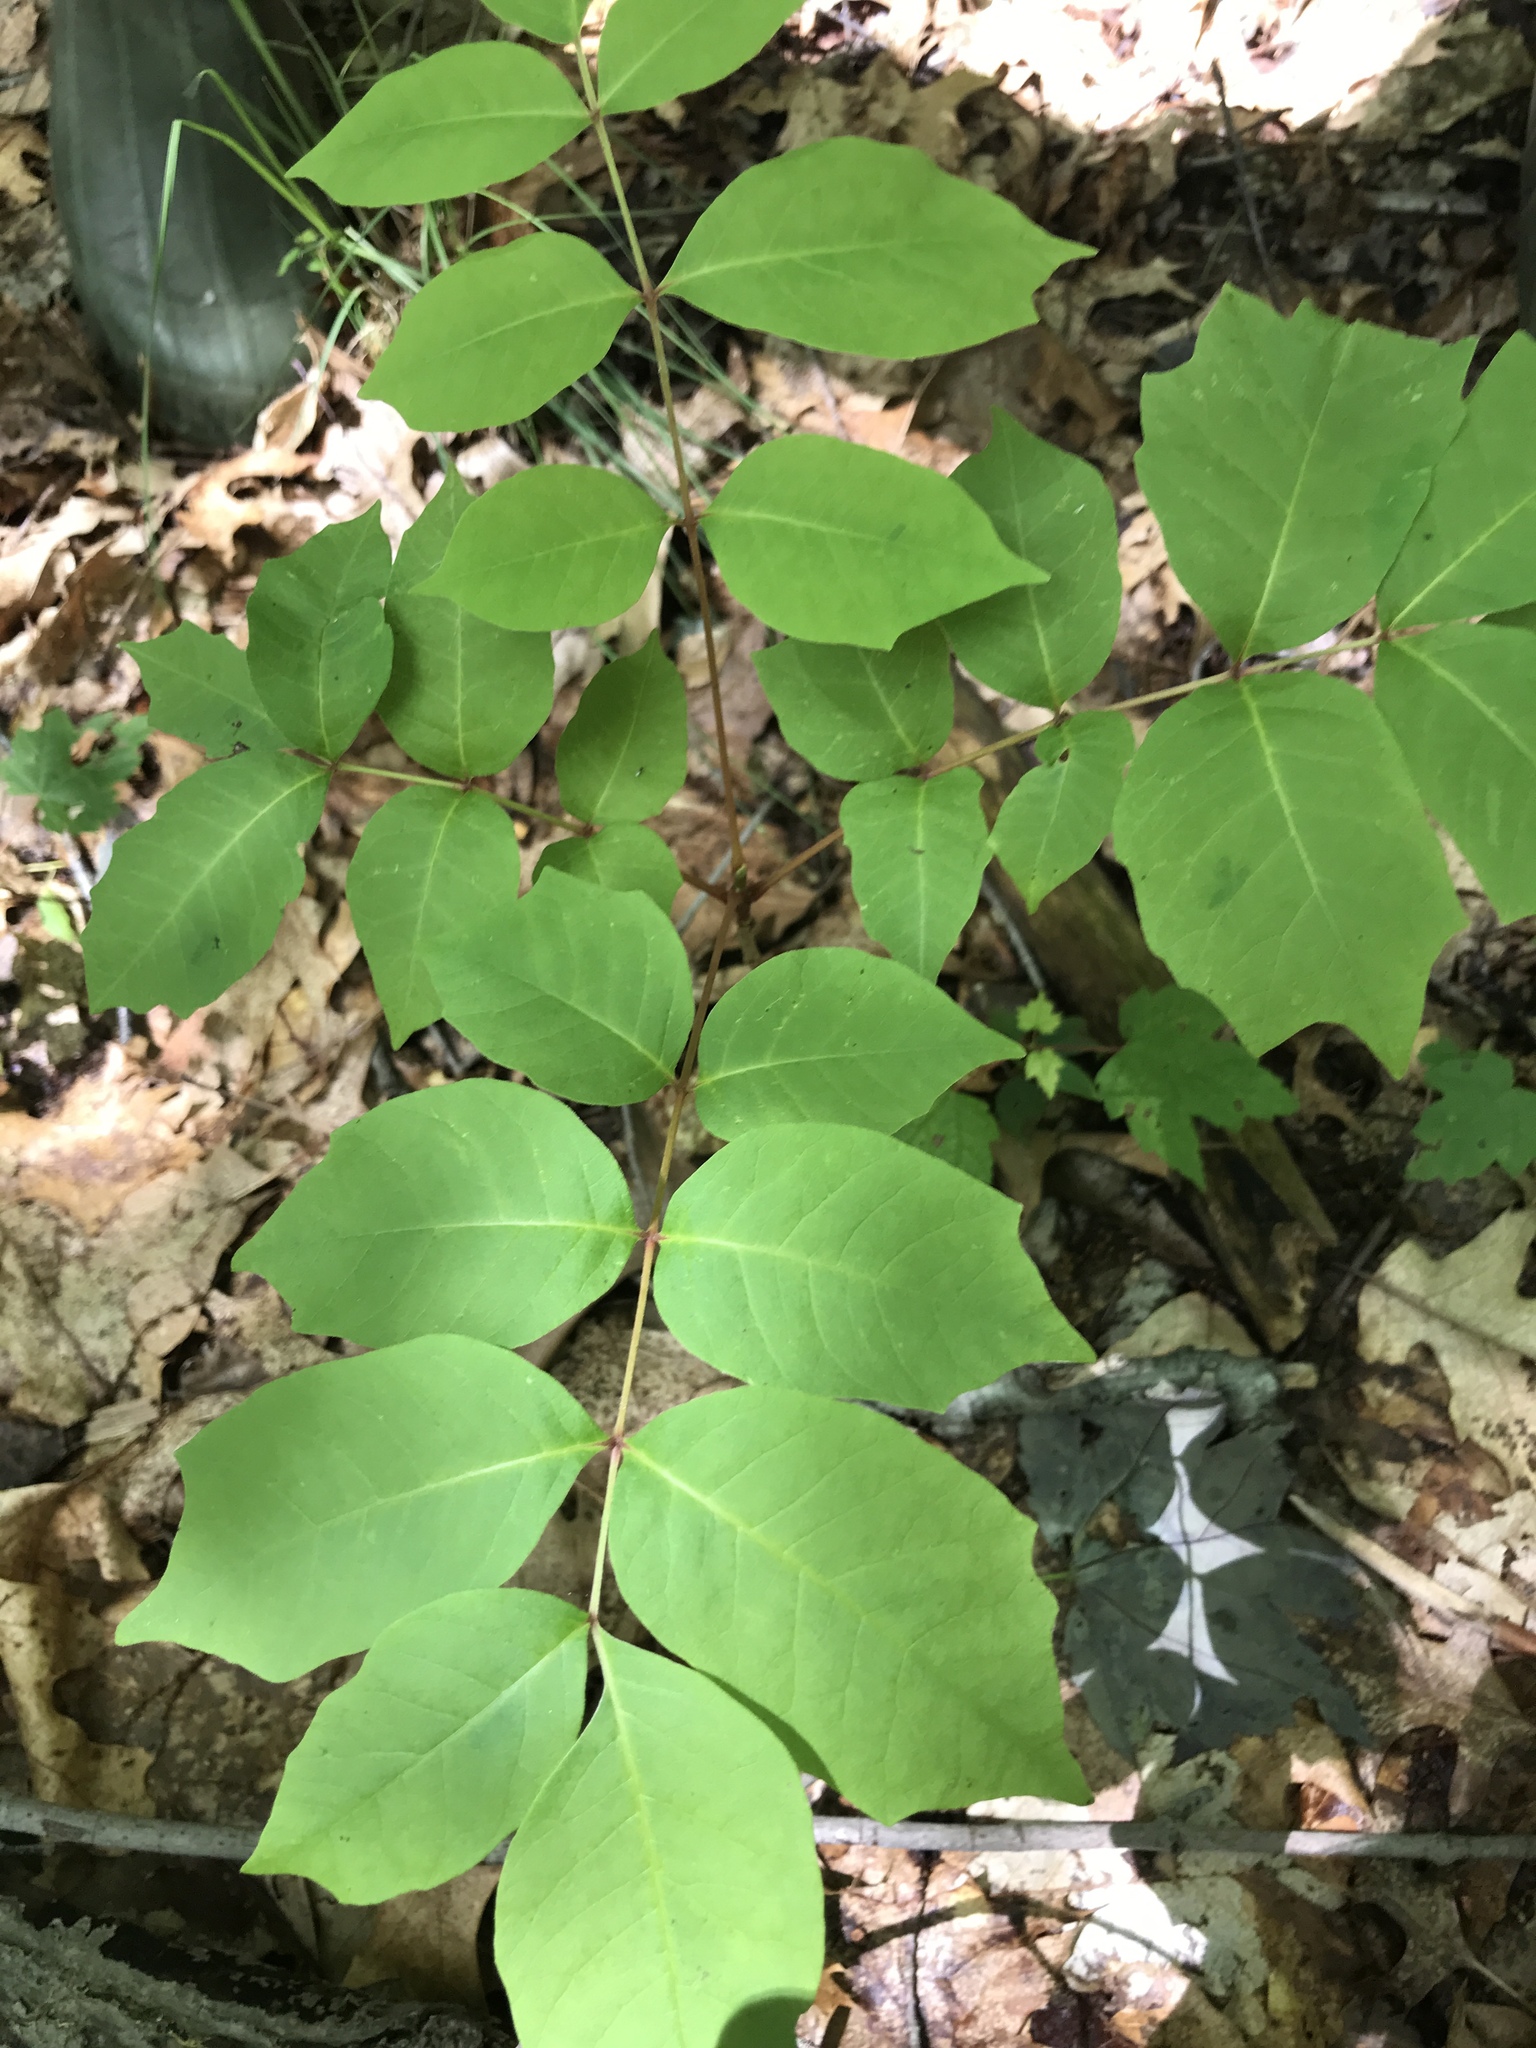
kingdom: Plantae
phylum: Tracheophyta
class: Magnoliopsida
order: Sapindales
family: Anacardiaceae
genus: Toxicodendron
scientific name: Toxicodendron vernix
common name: Poison sumac
